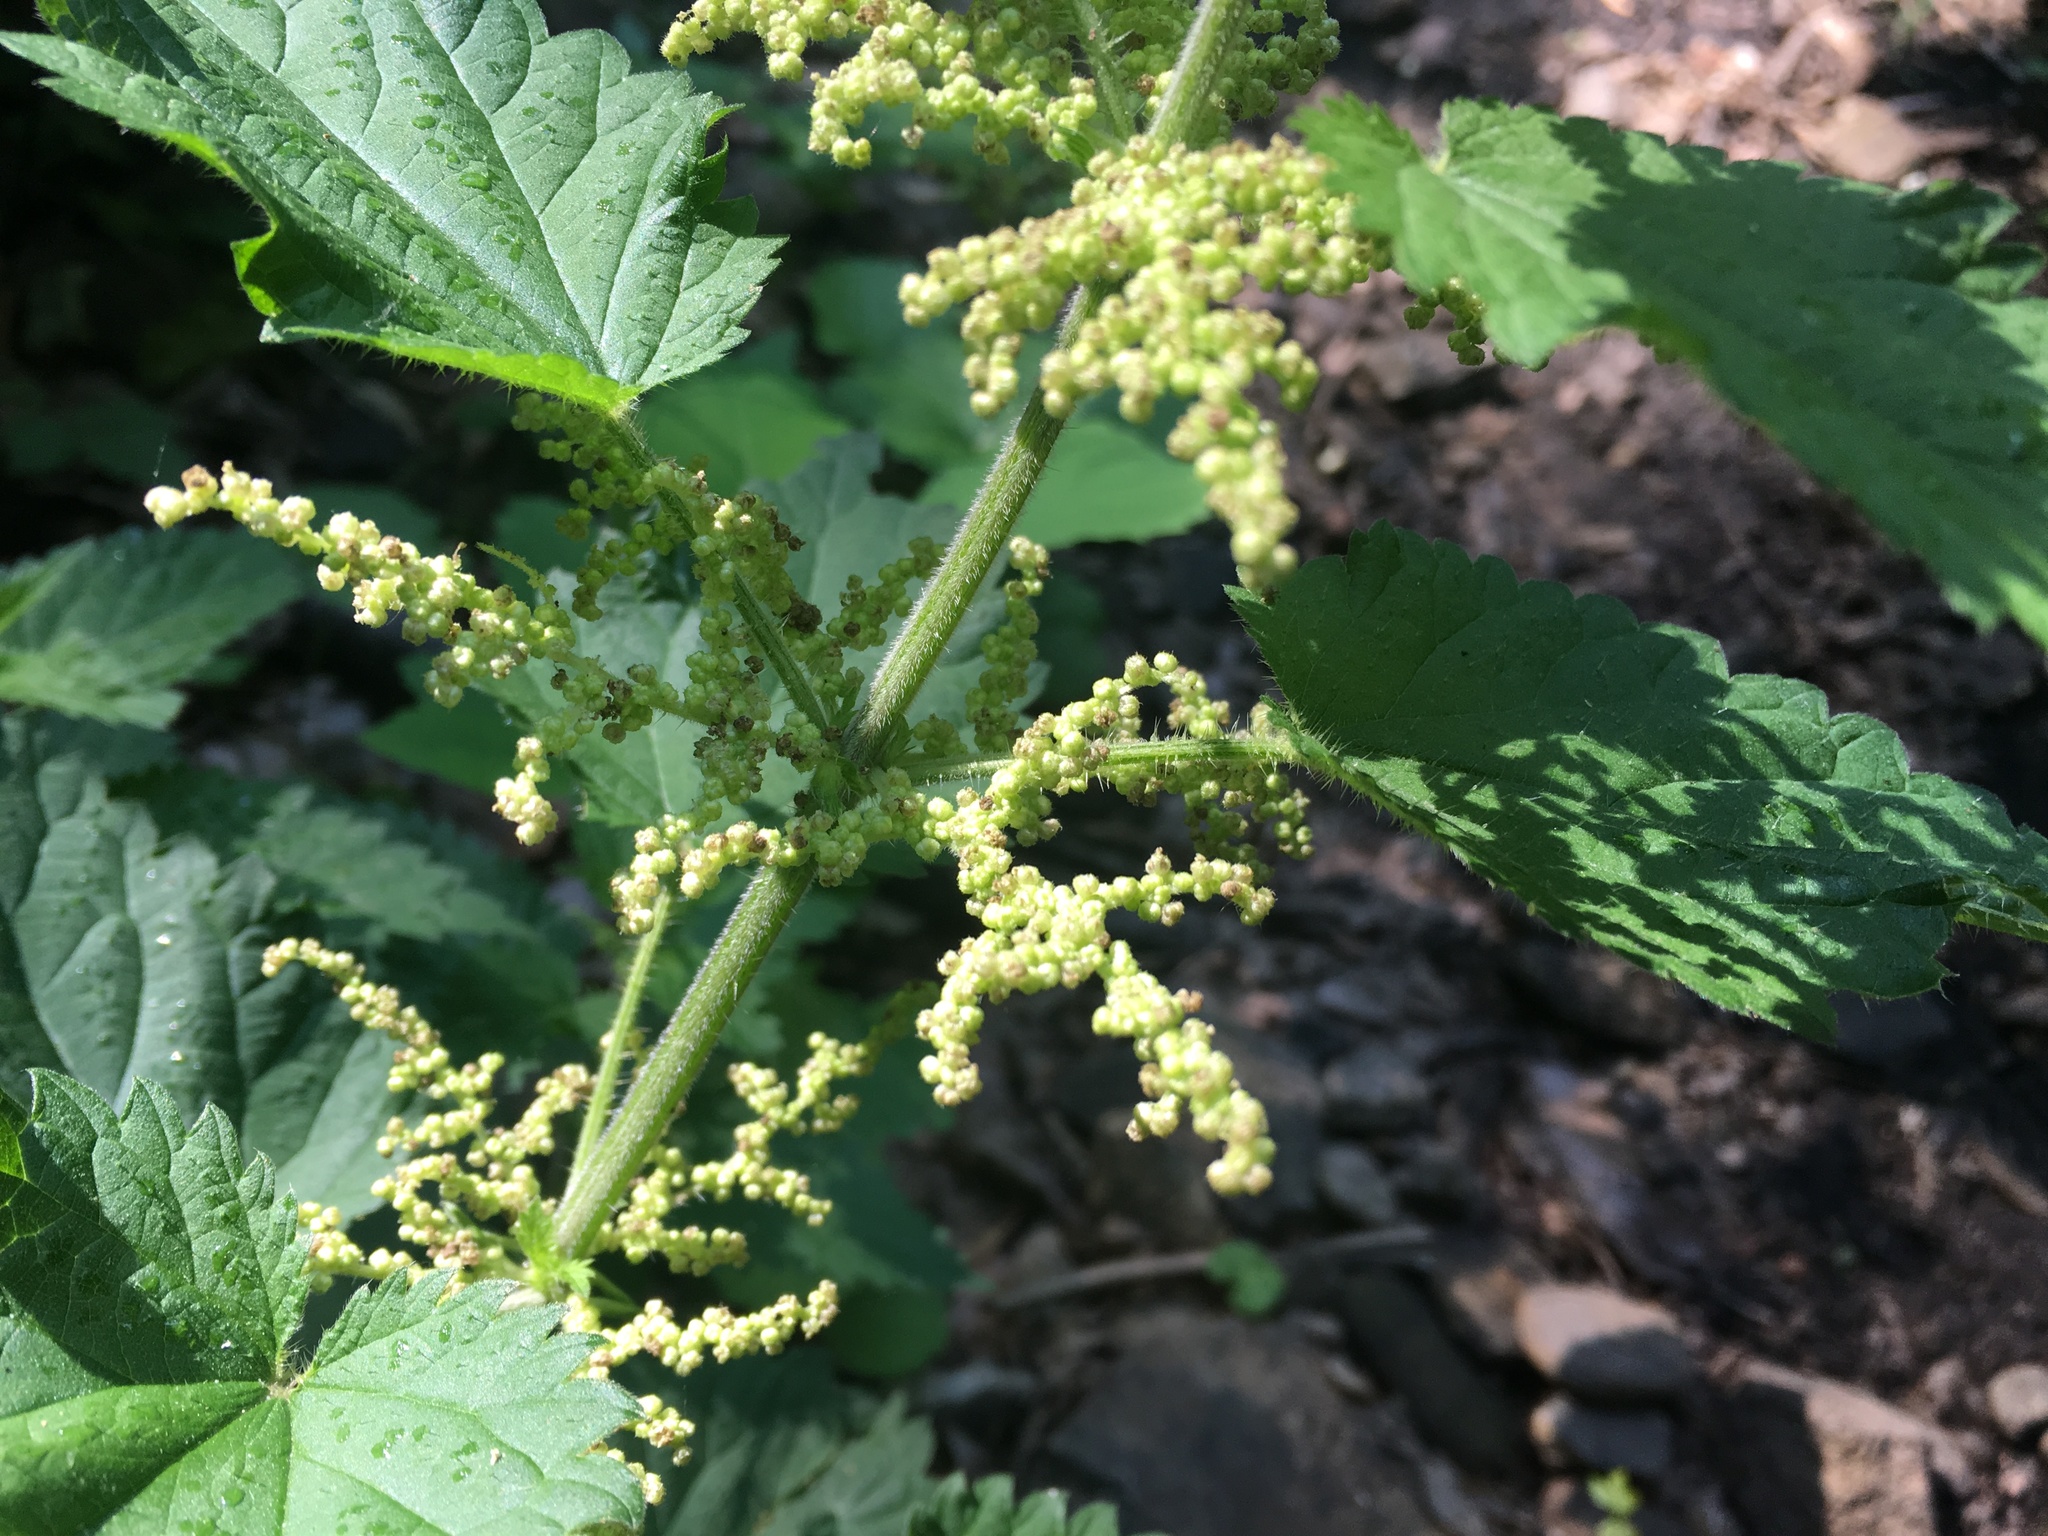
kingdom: Plantae
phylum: Tracheophyta
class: Magnoliopsida
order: Rosales
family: Urticaceae
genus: Urtica
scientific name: Urtica dioica
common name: Common nettle
